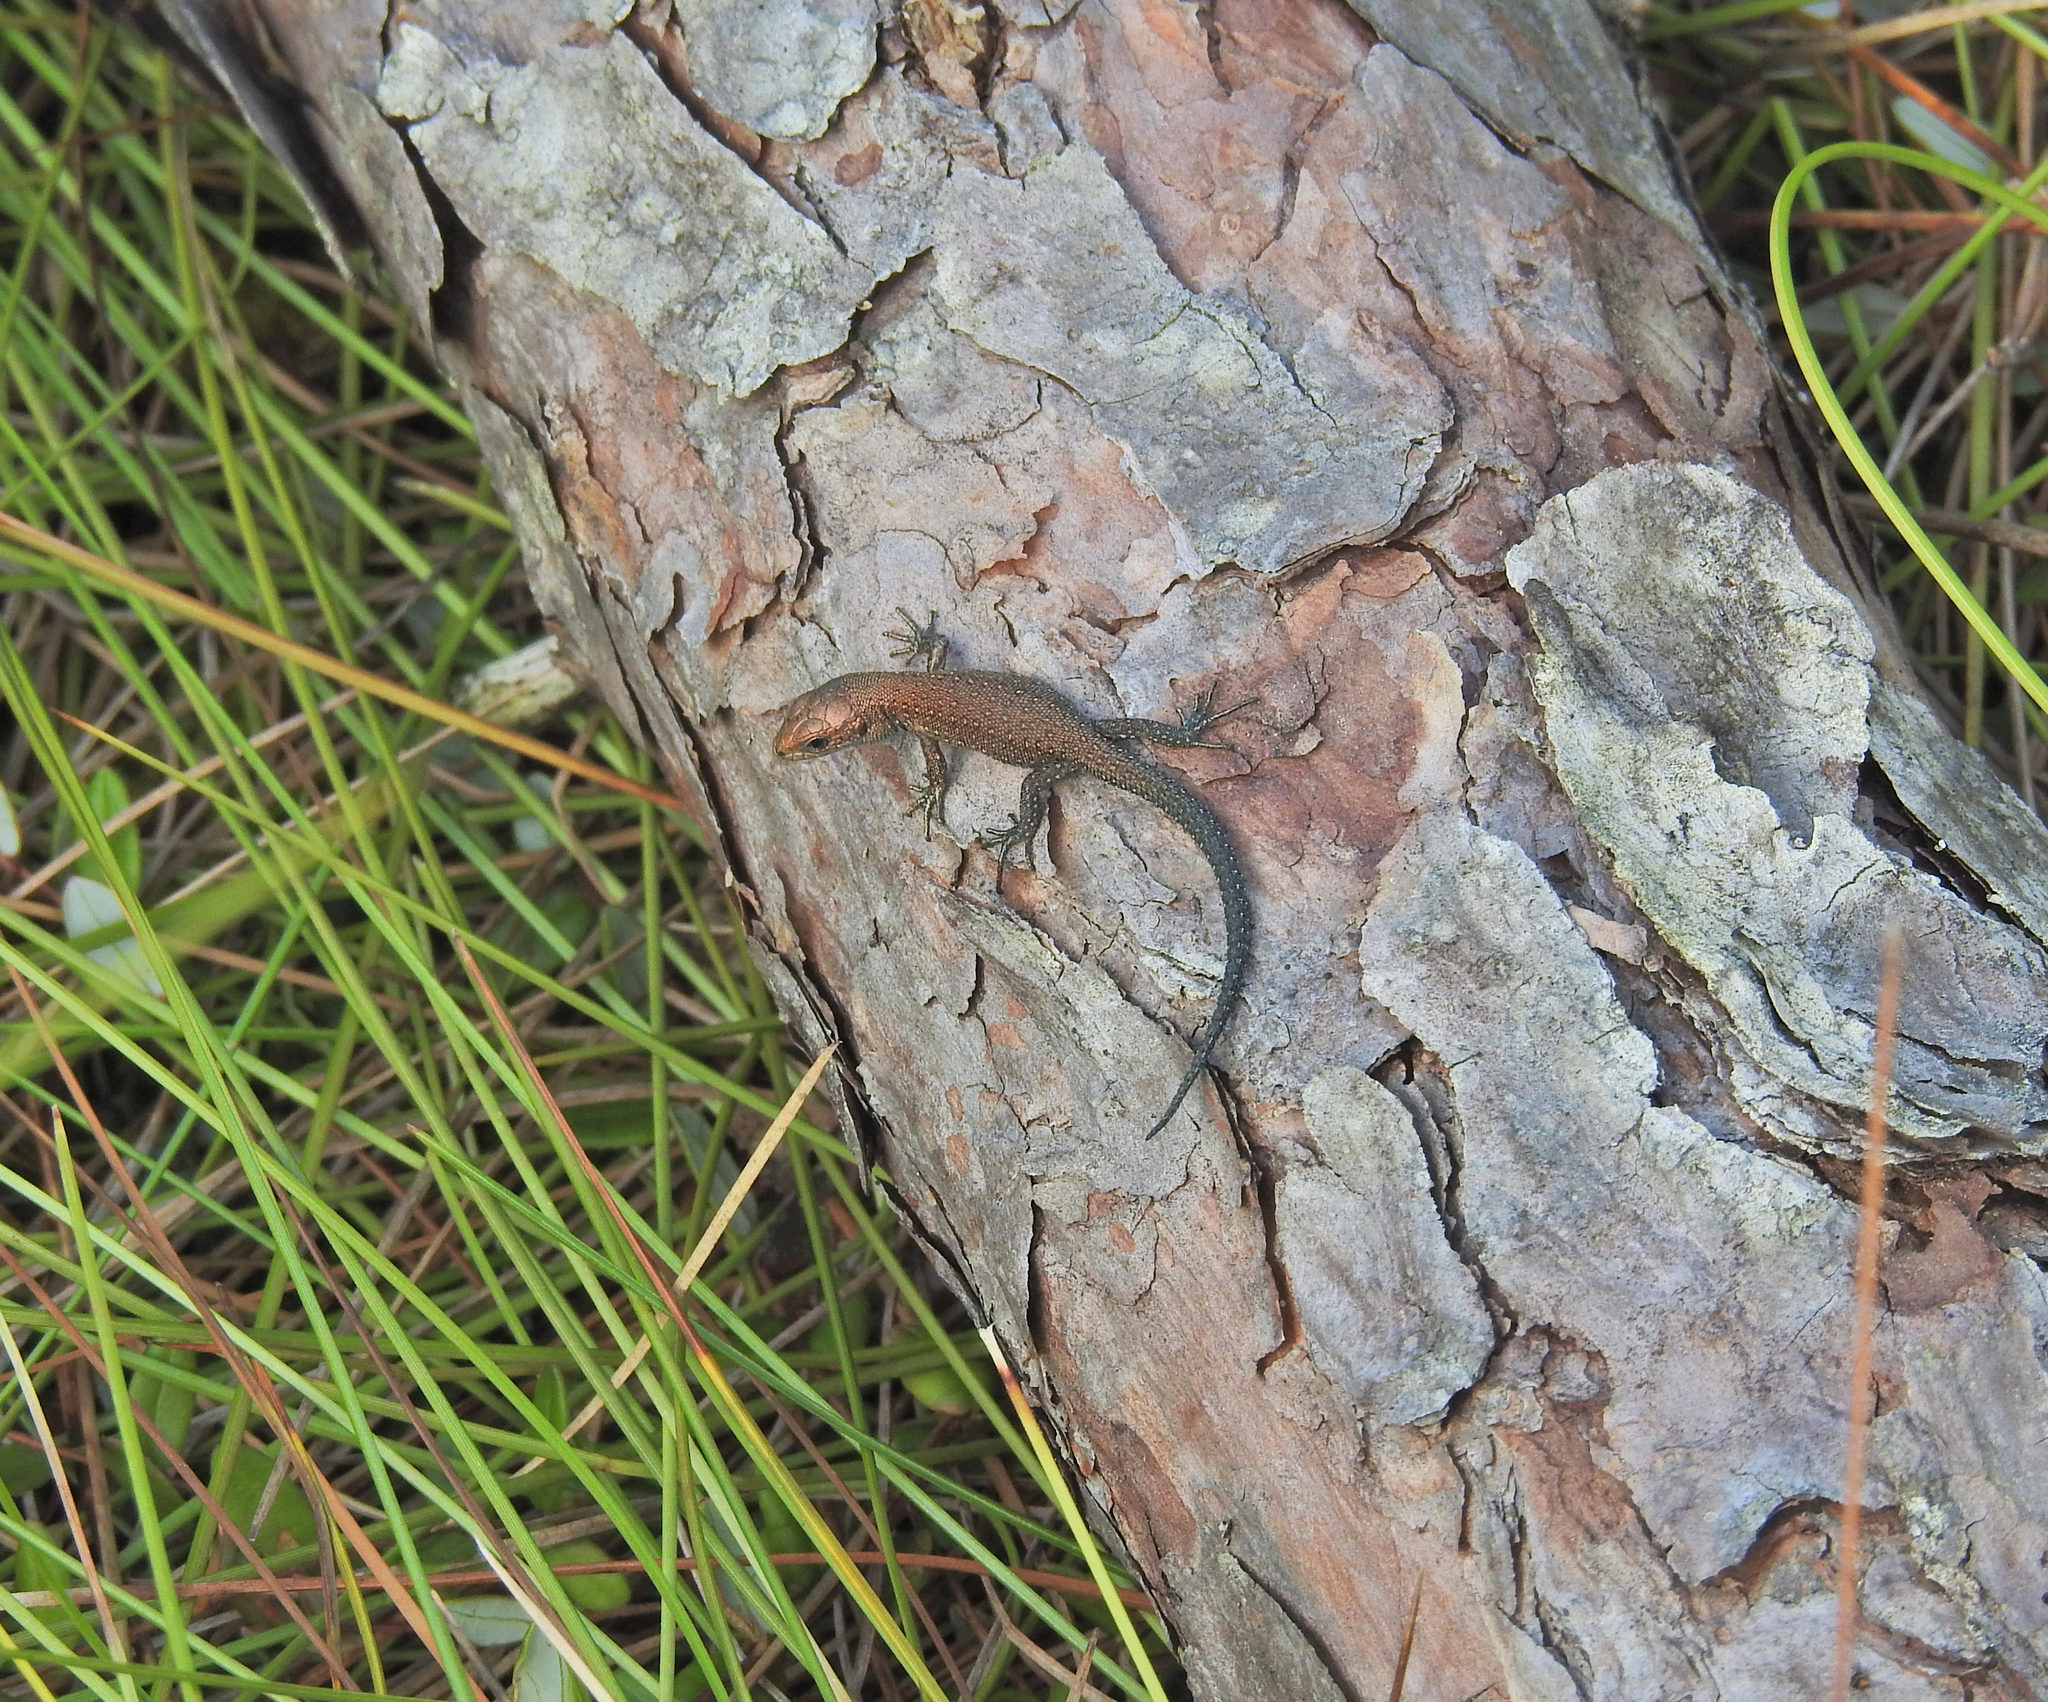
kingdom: Animalia
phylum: Chordata
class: Squamata
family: Lacertidae
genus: Zootoca
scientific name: Zootoca vivipara
